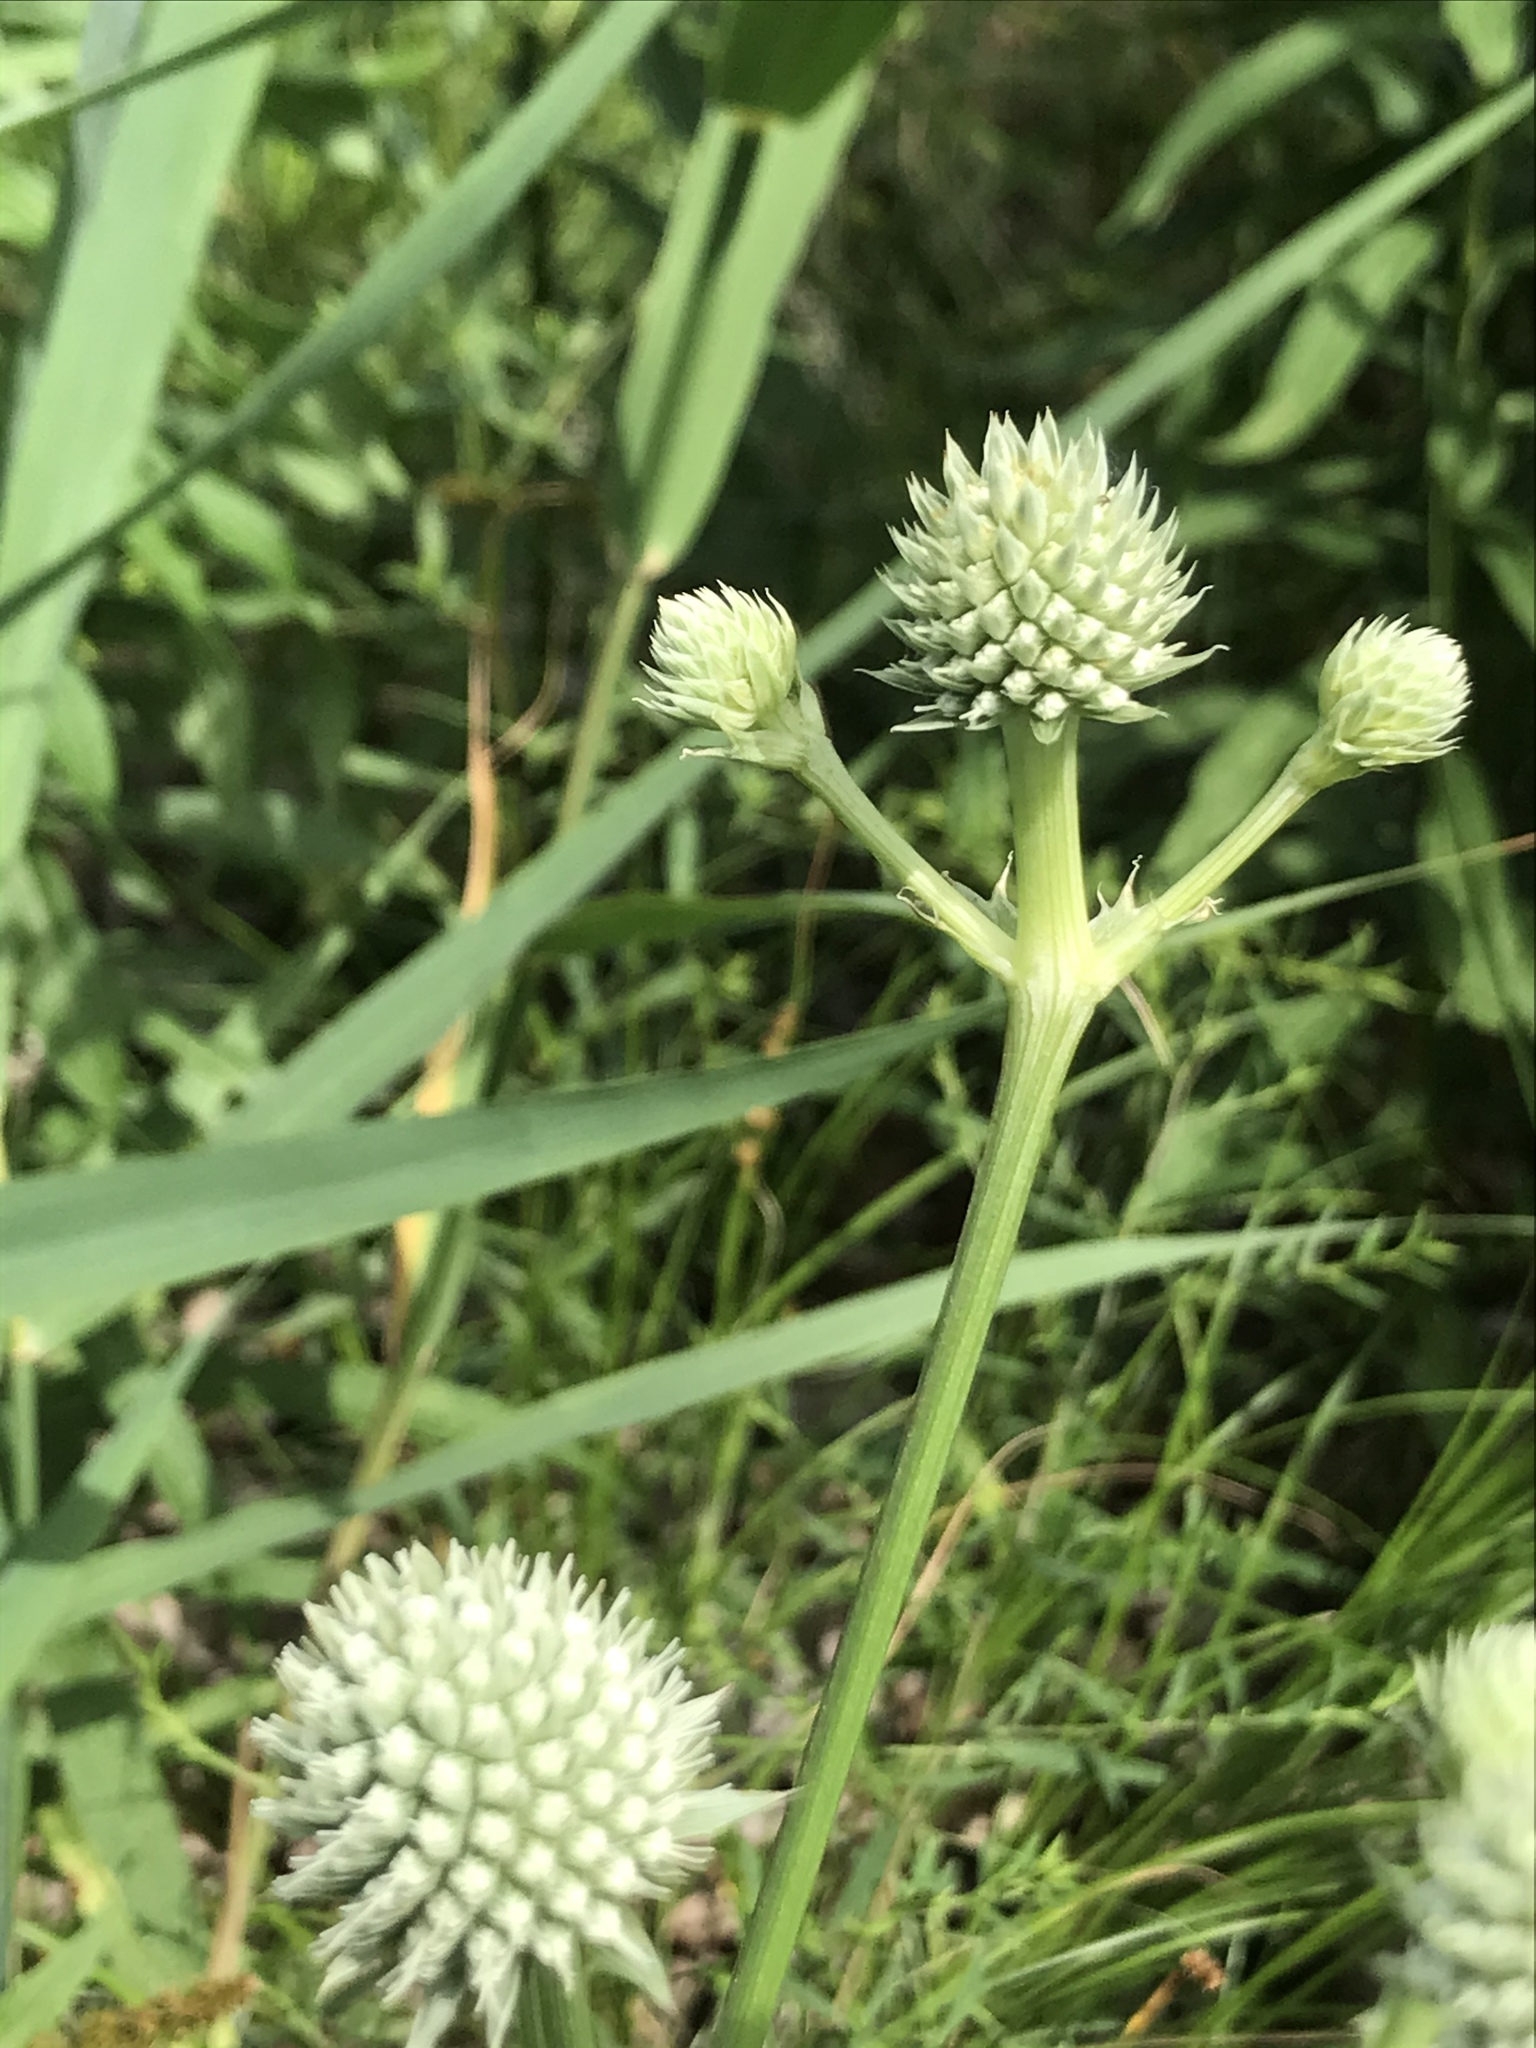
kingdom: Plantae
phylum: Tracheophyta
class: Magnoliopsida
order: Apiales
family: Apiaceae
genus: Eryngium
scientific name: Eryngium yuccifolium
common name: Button eryngo
